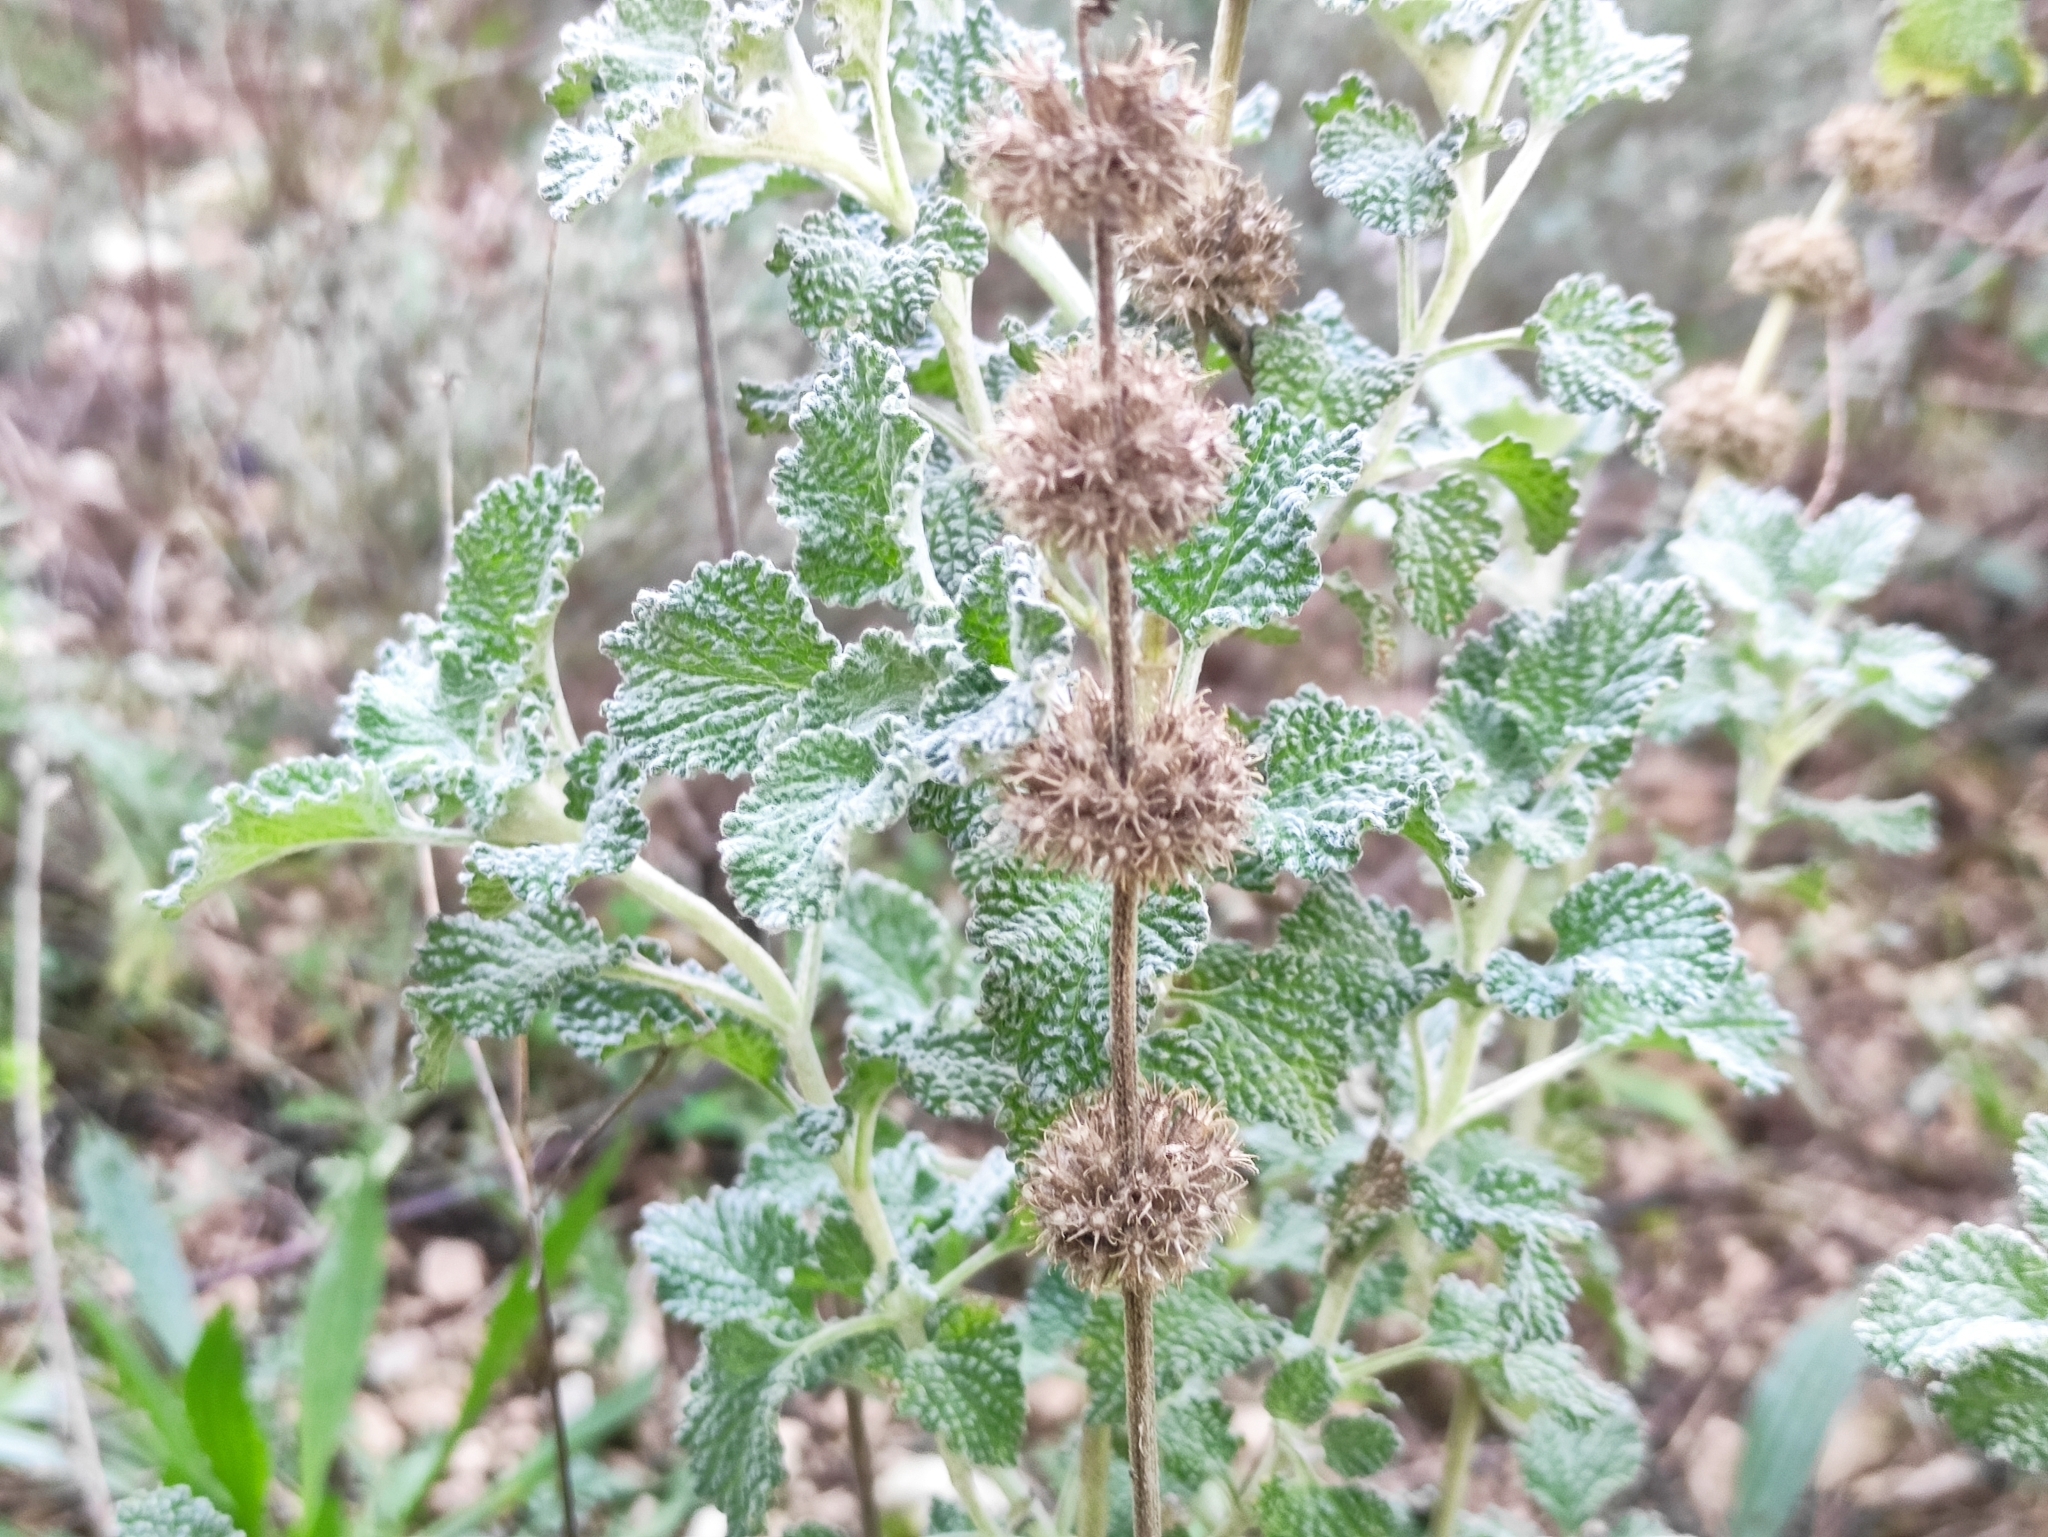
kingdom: Plantae
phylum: Tracheophyta
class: Magnoliopsida
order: Lamiales
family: Lamiaceae
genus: Marrubium
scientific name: Marrubium vulgare
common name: Horehound
